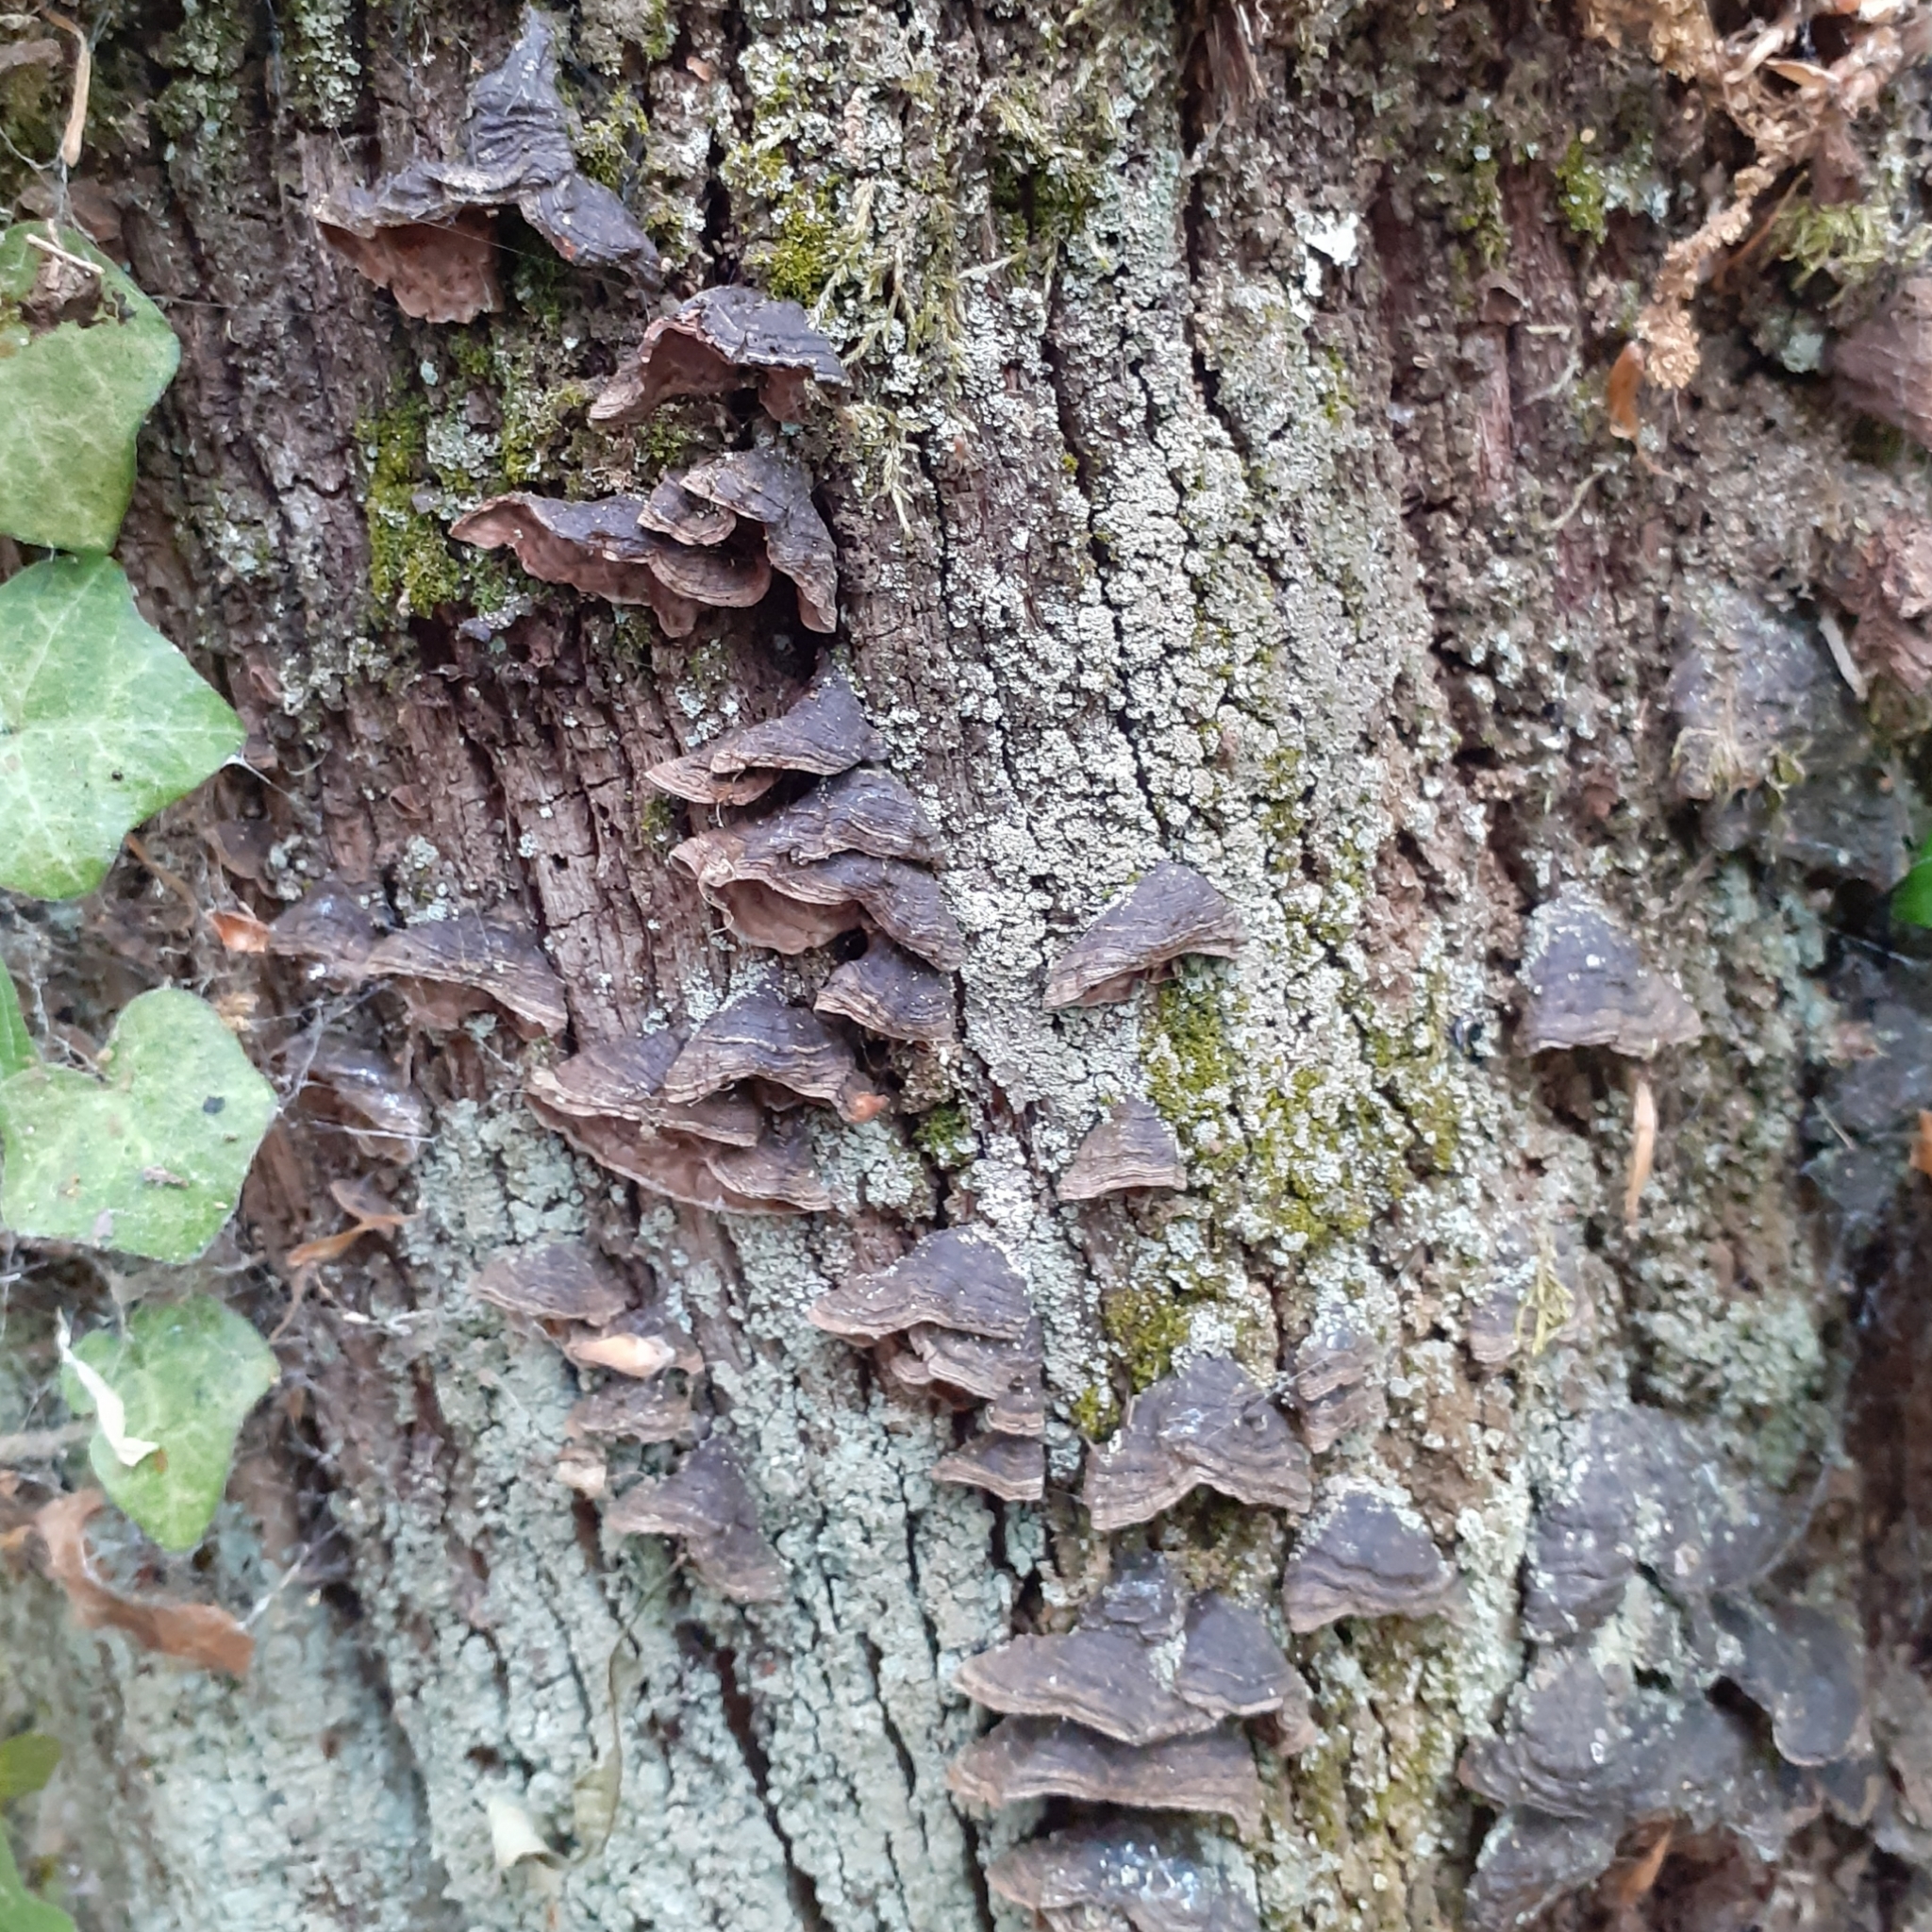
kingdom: Fungi
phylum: Basidiomycota
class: Agaricomycetes
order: Hymenochaetales
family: Hymenochaetaceae
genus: Hymenochaete
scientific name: Hymenochaete rubiginosa
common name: Oak curtain crust
